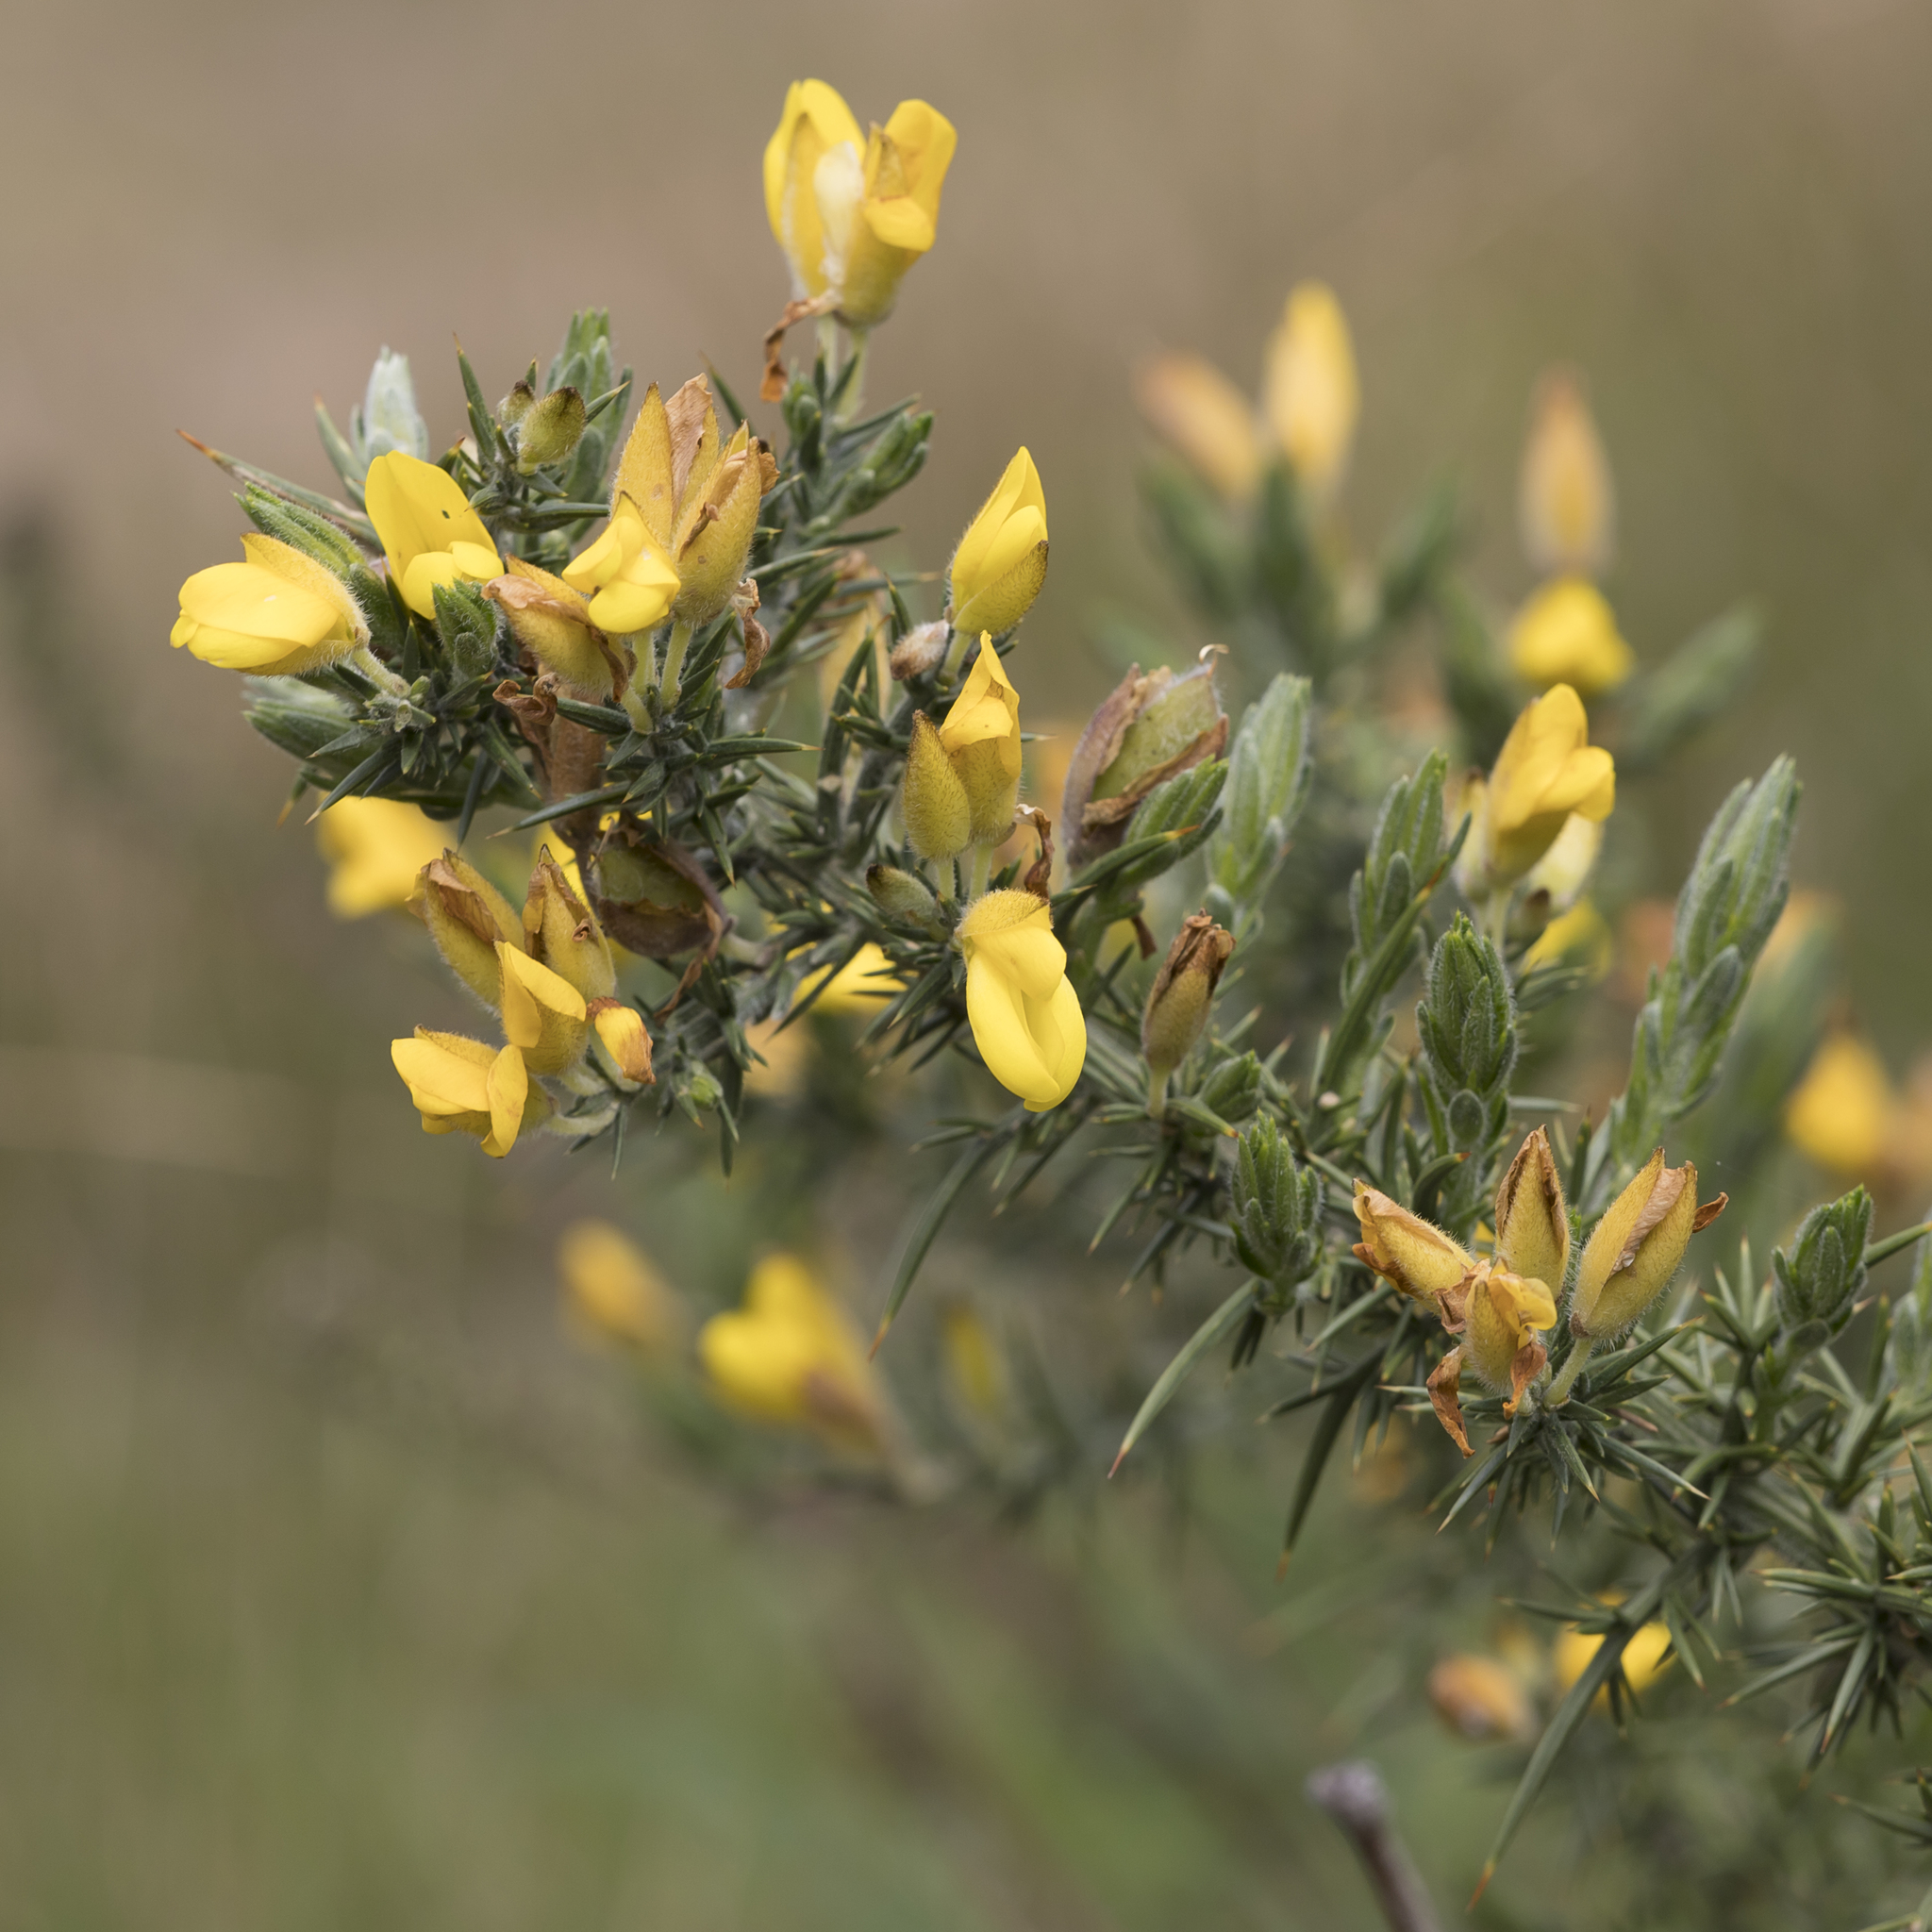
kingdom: Plantae
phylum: Tracheophyta
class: Magnoliopsida
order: Fabales
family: Fabaceae
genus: Ulex
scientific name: Ulex europaeus
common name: Common gorse
